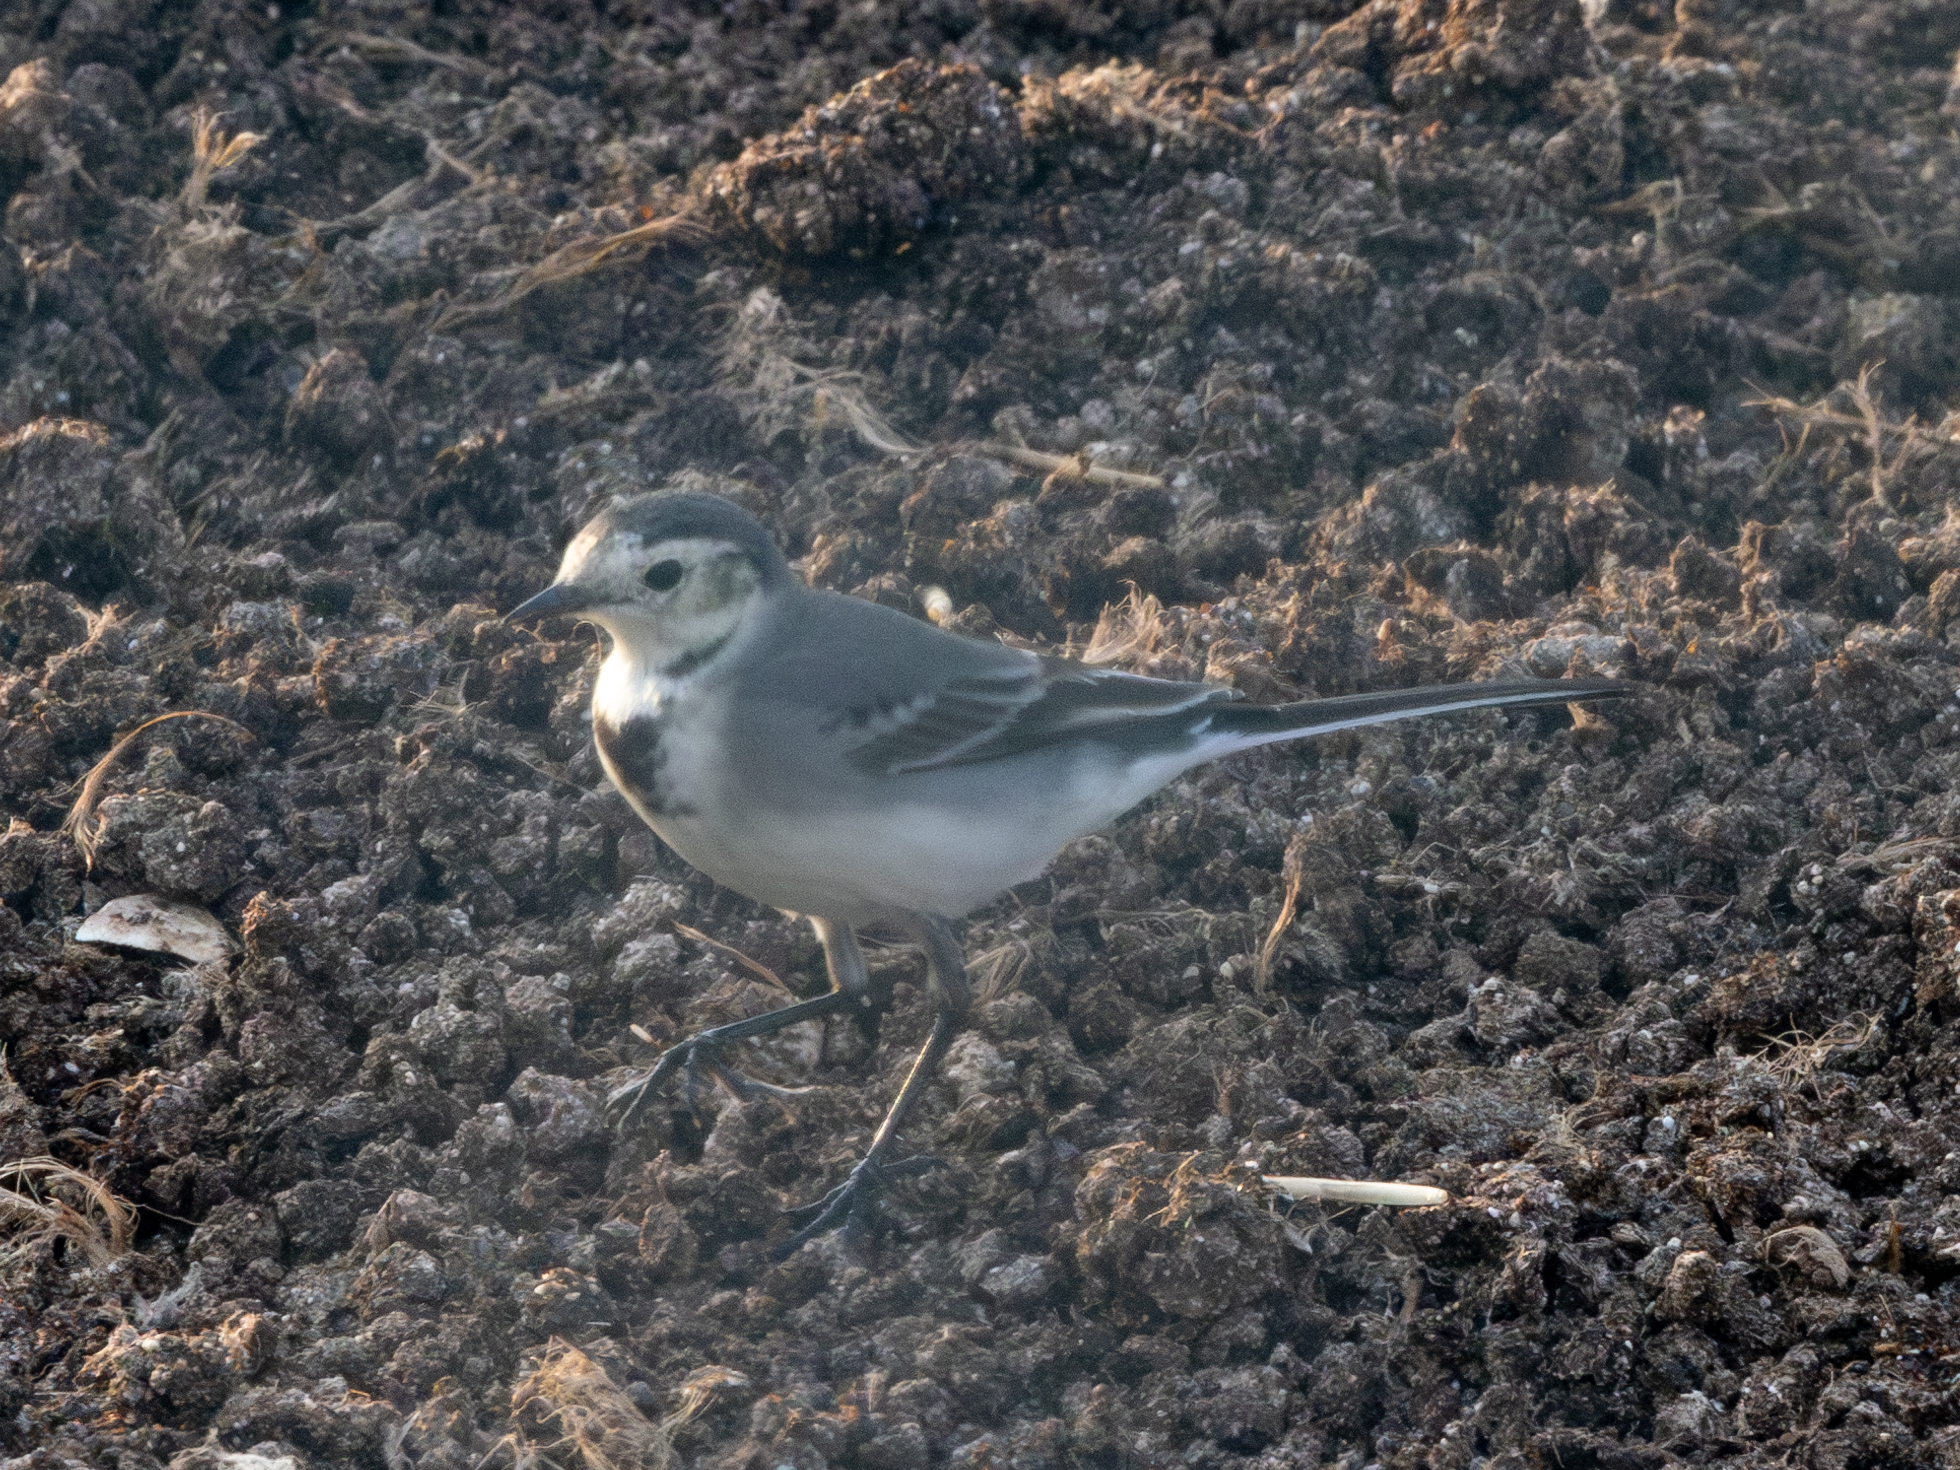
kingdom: Animalia
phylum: Chordata
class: Aves
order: Passeriformes
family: Motacillidae
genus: Motacilla
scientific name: Motacilla alba
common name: White wagtail
